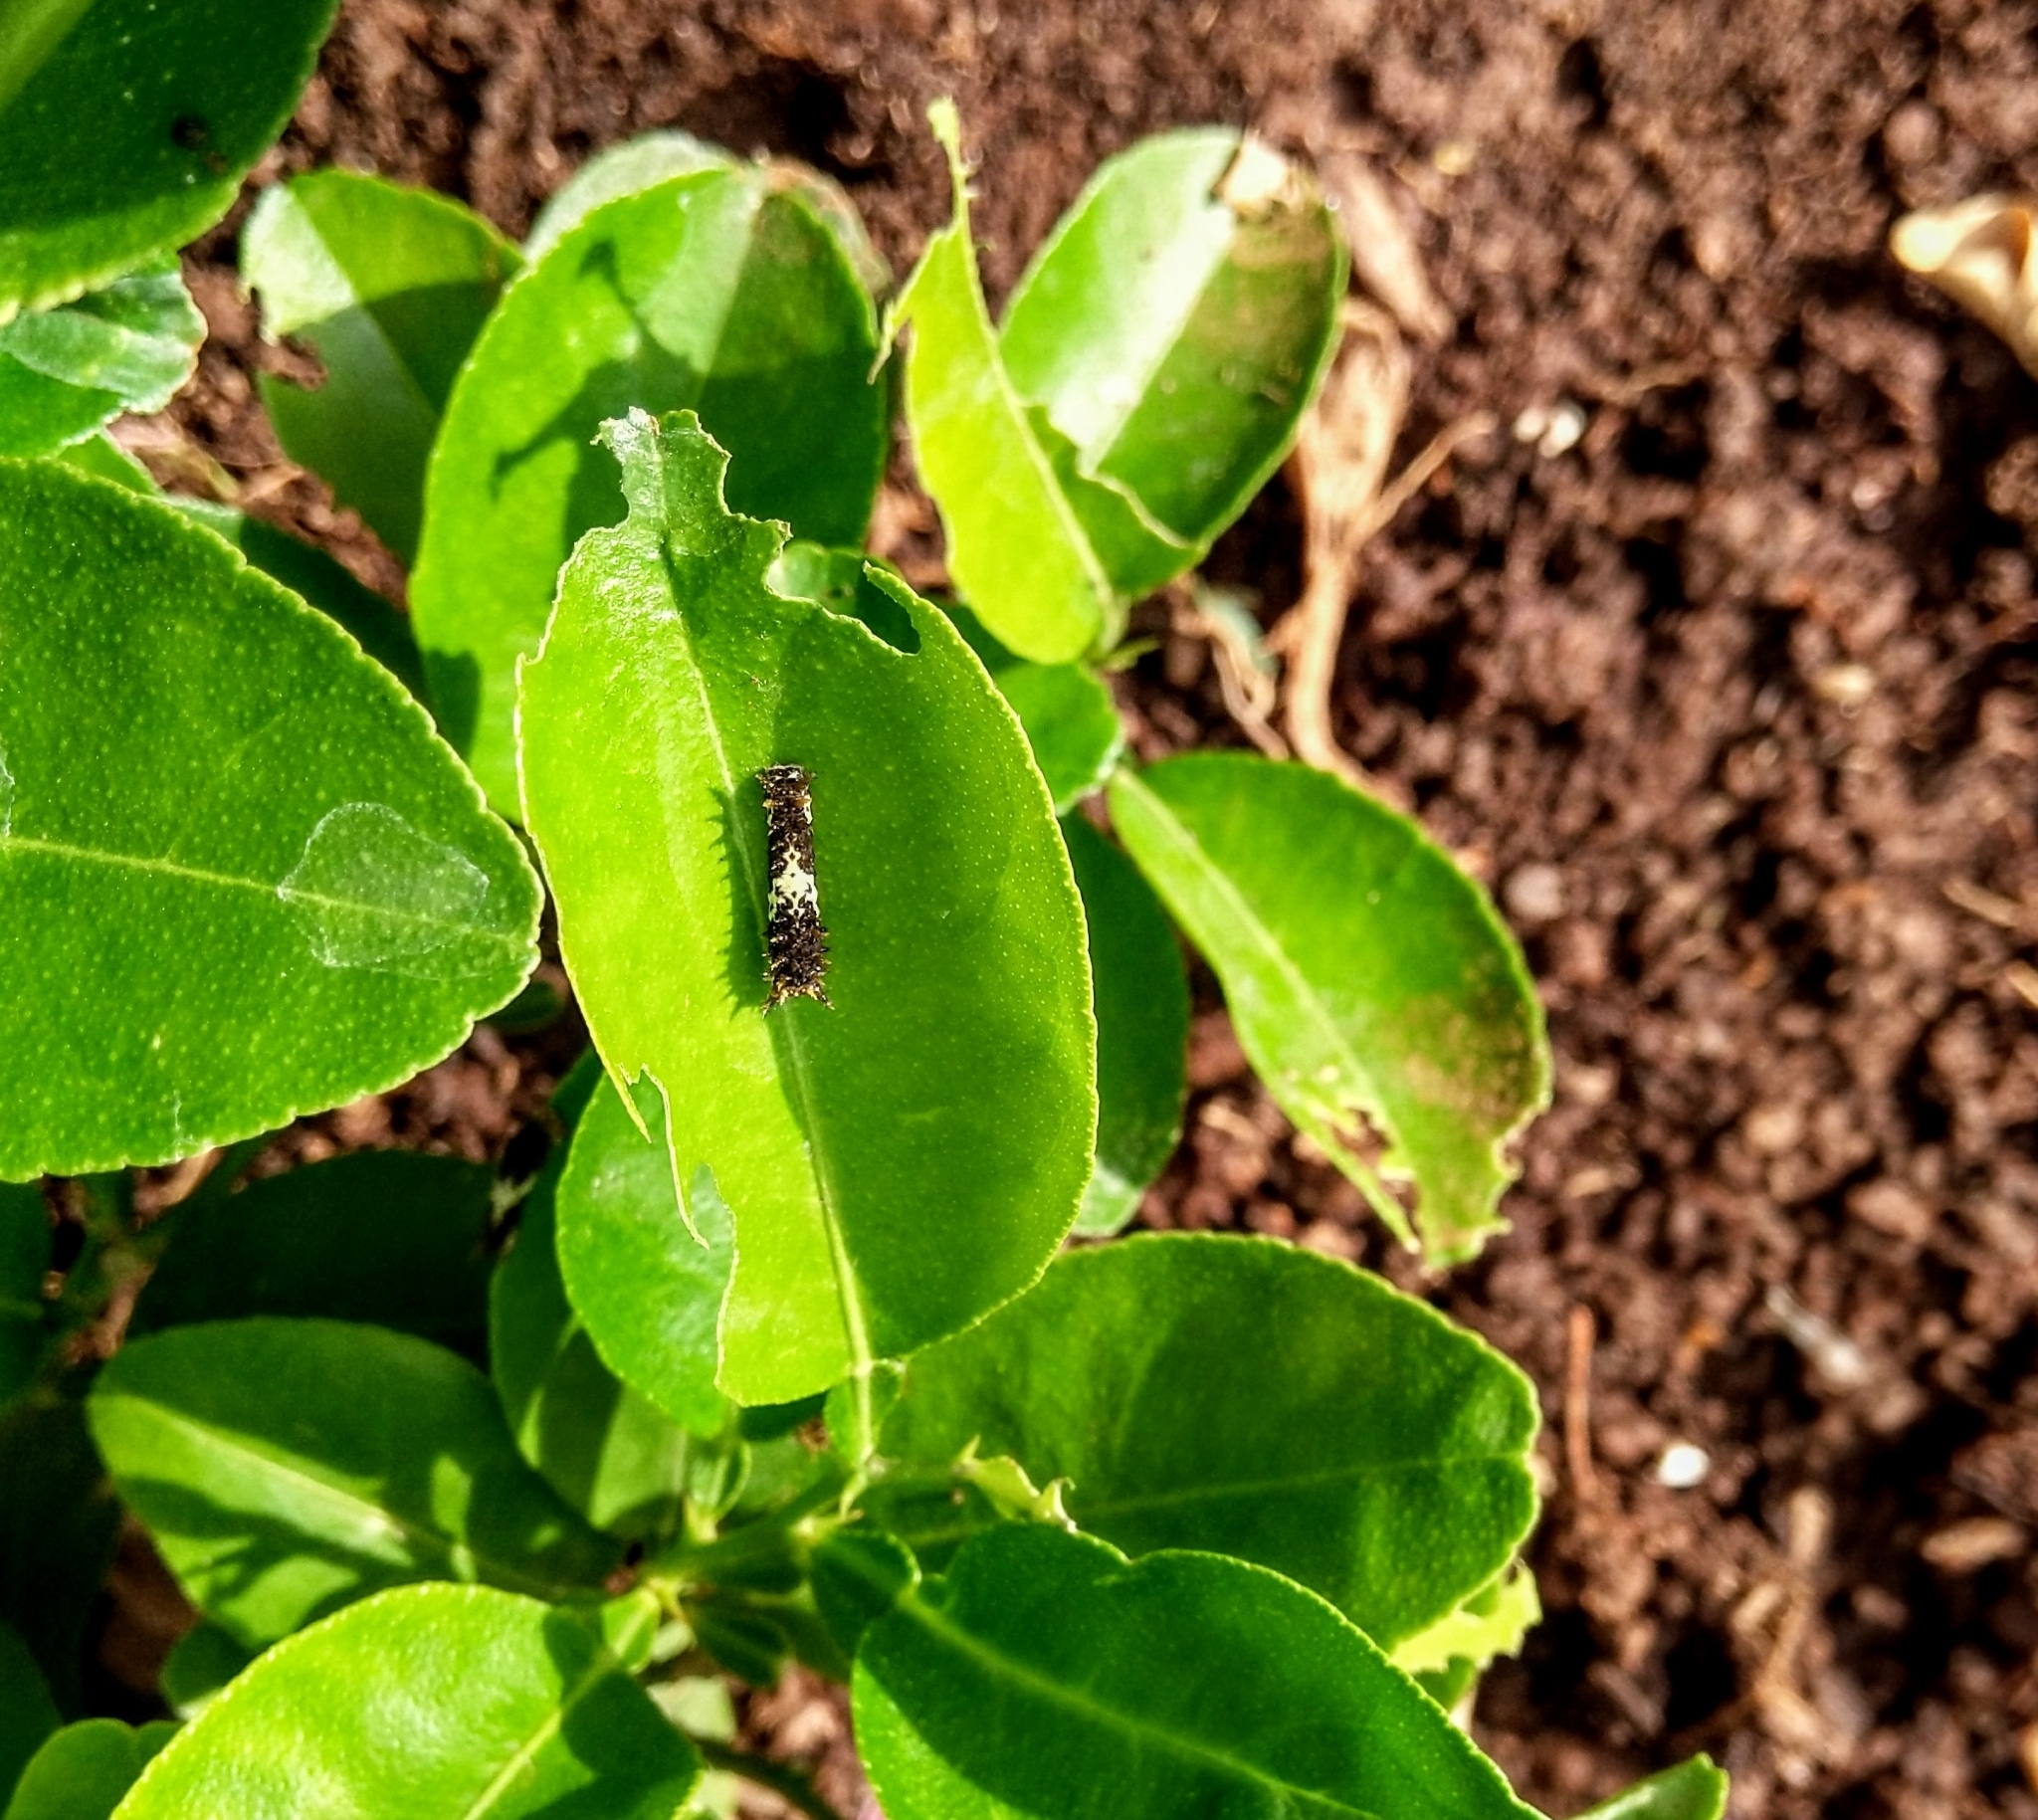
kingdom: Animalia
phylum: Arthropoda
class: Insecta
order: Lepidoptera
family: Papilionidae
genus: Papilio
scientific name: Papilio demoleus
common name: Lime butterfly
